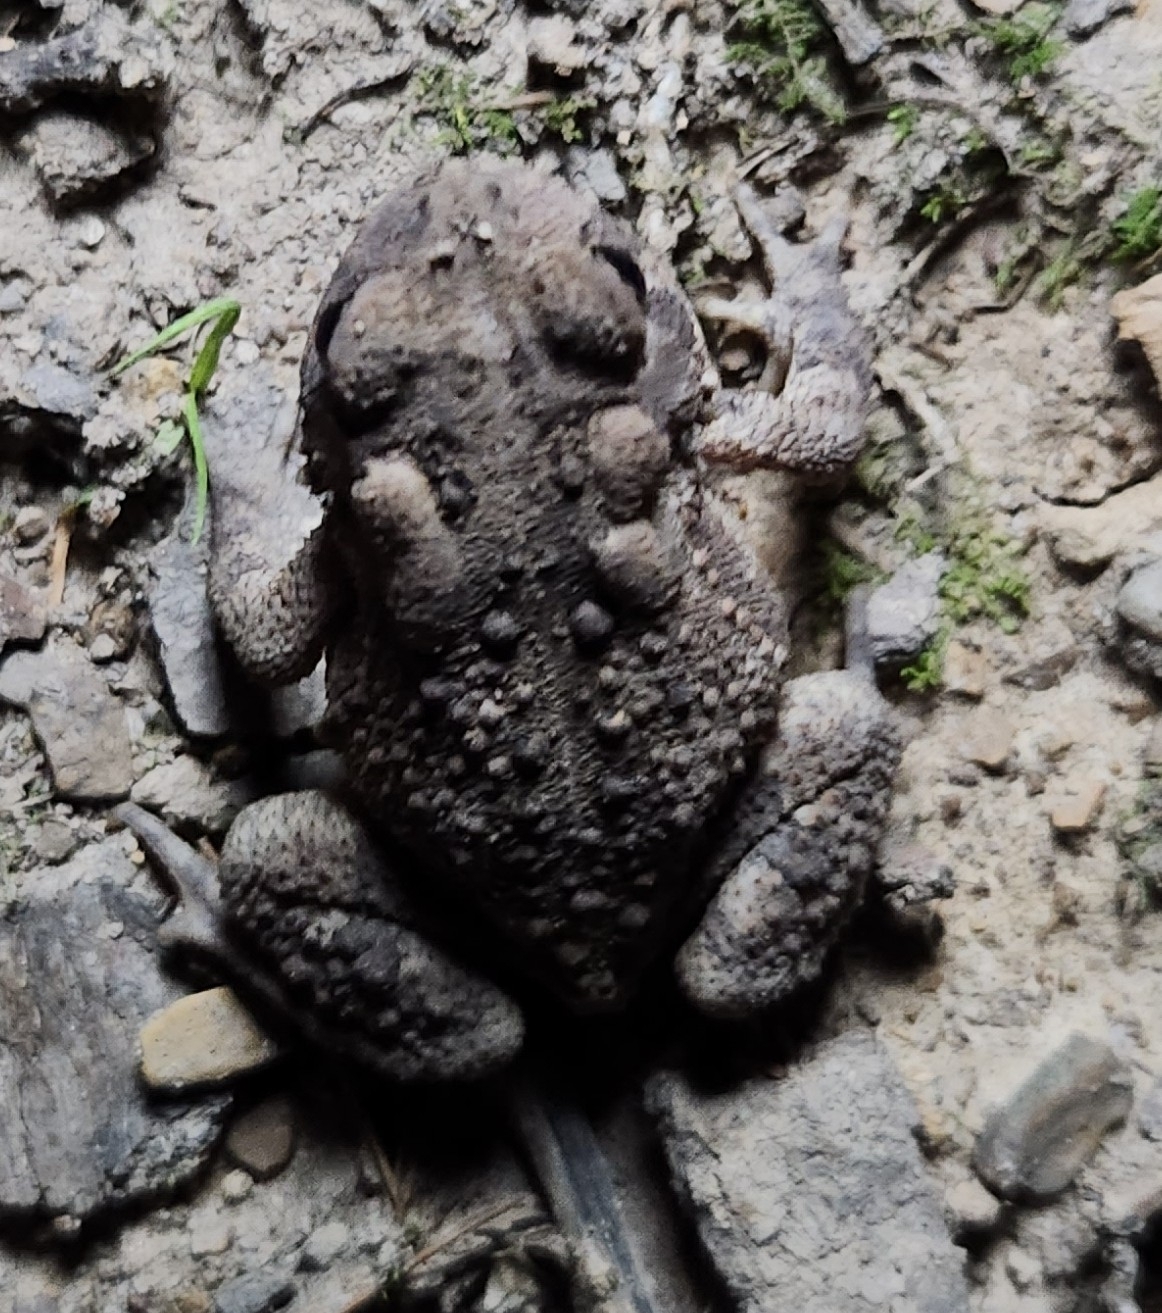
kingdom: Animalia
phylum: Chordata
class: Amphibia
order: Anura
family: Bufonidae
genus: Anaxyrus
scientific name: Anaxyrus americanus
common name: American toad
